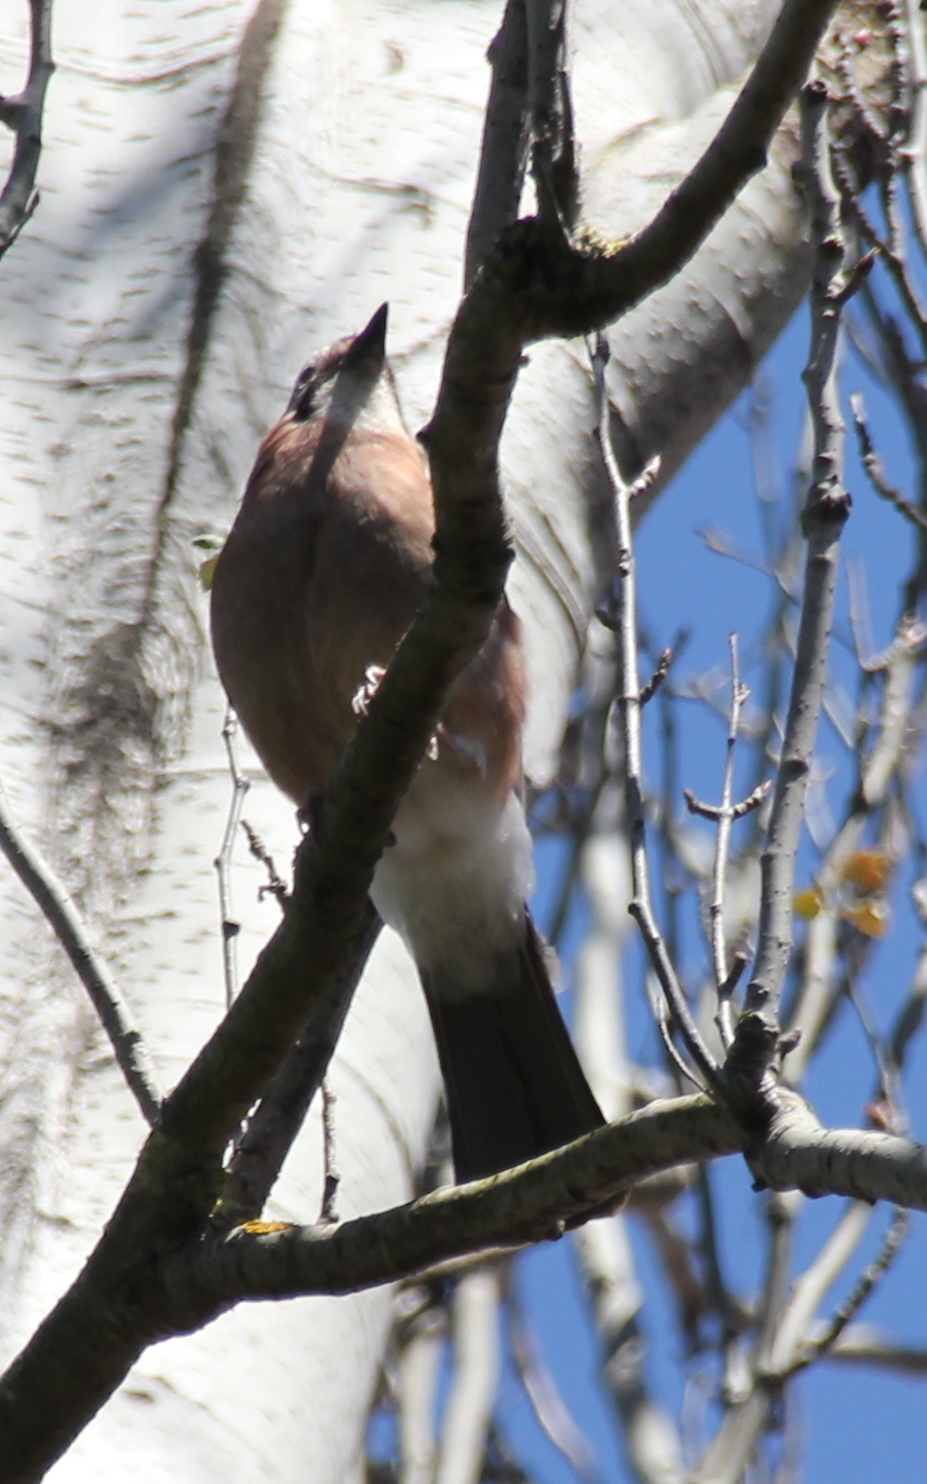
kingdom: Animalia
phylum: Chordata
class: Aves
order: Passeriformes
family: Corvidae
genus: Garrulus
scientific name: Garrulus glandarius
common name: Eurasian jay
